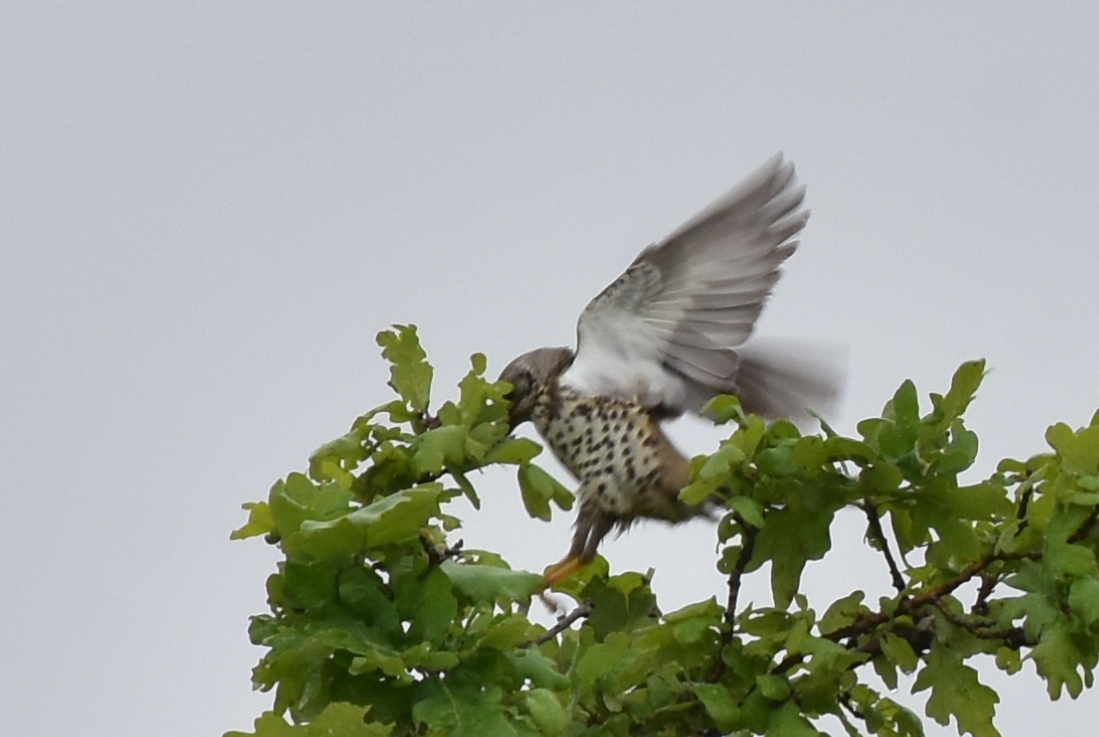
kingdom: Animalia
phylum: Chordata
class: Aves
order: Passeriformes
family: Turdidae
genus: Turdus
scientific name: Turdus viscivorus
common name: Mistle thrush
